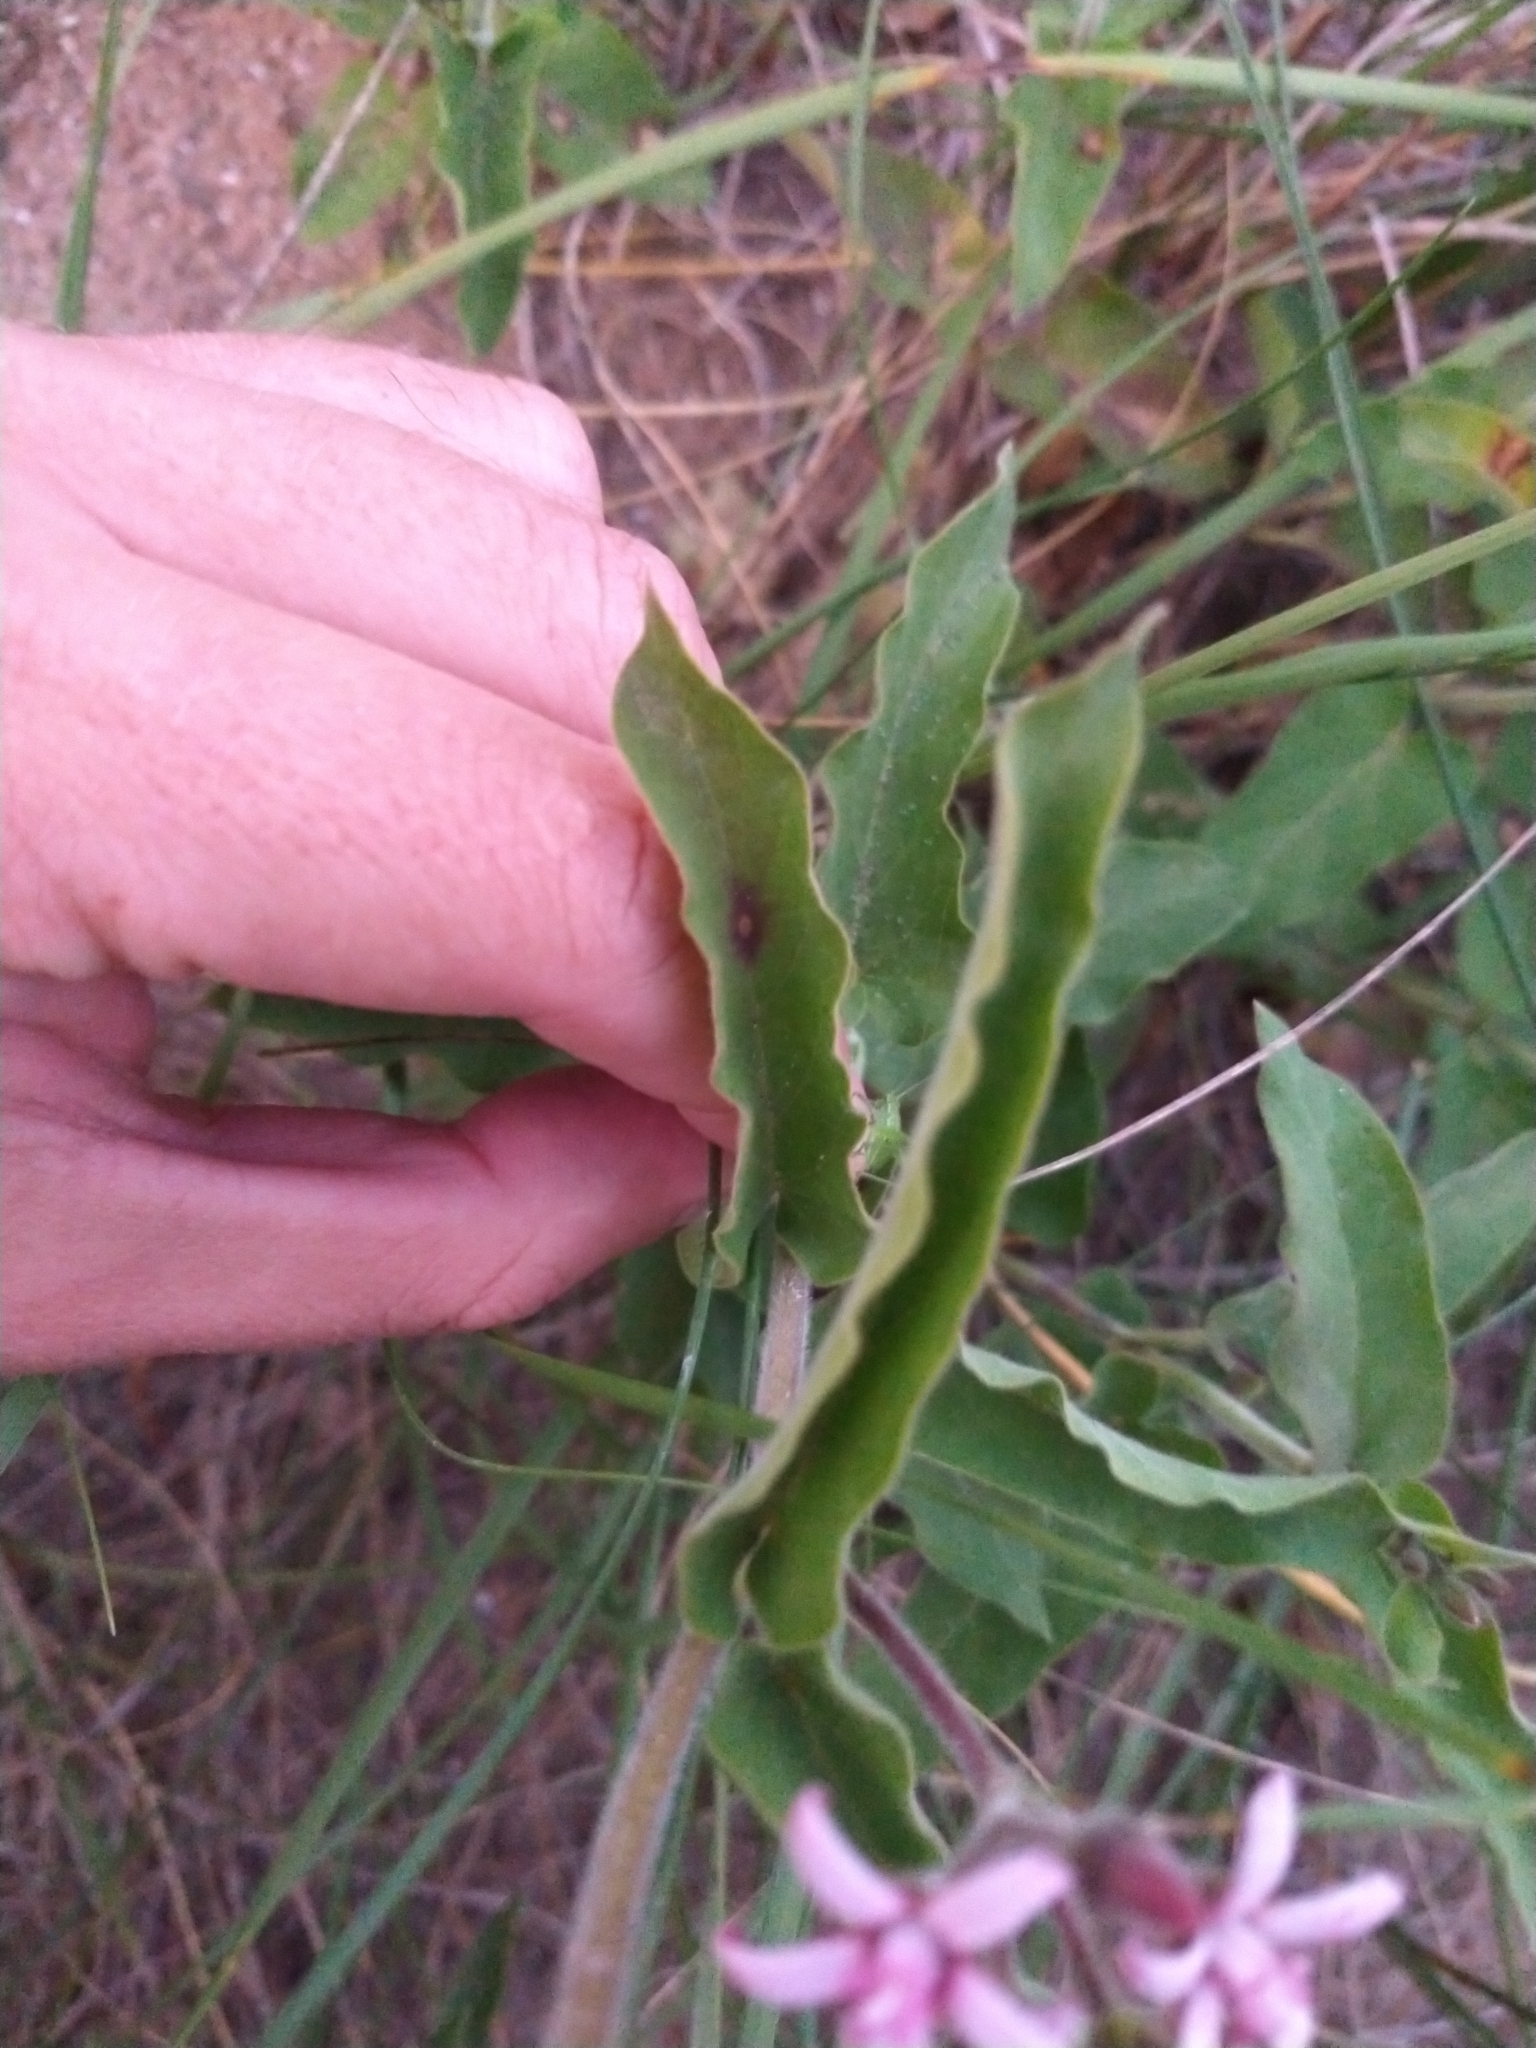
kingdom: Plantae
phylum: Tracheophyta
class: Magnoliopsida
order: Gentianales
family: Apocynaceae
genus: Oxypetalum
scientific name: Oxypetalum solanoides
